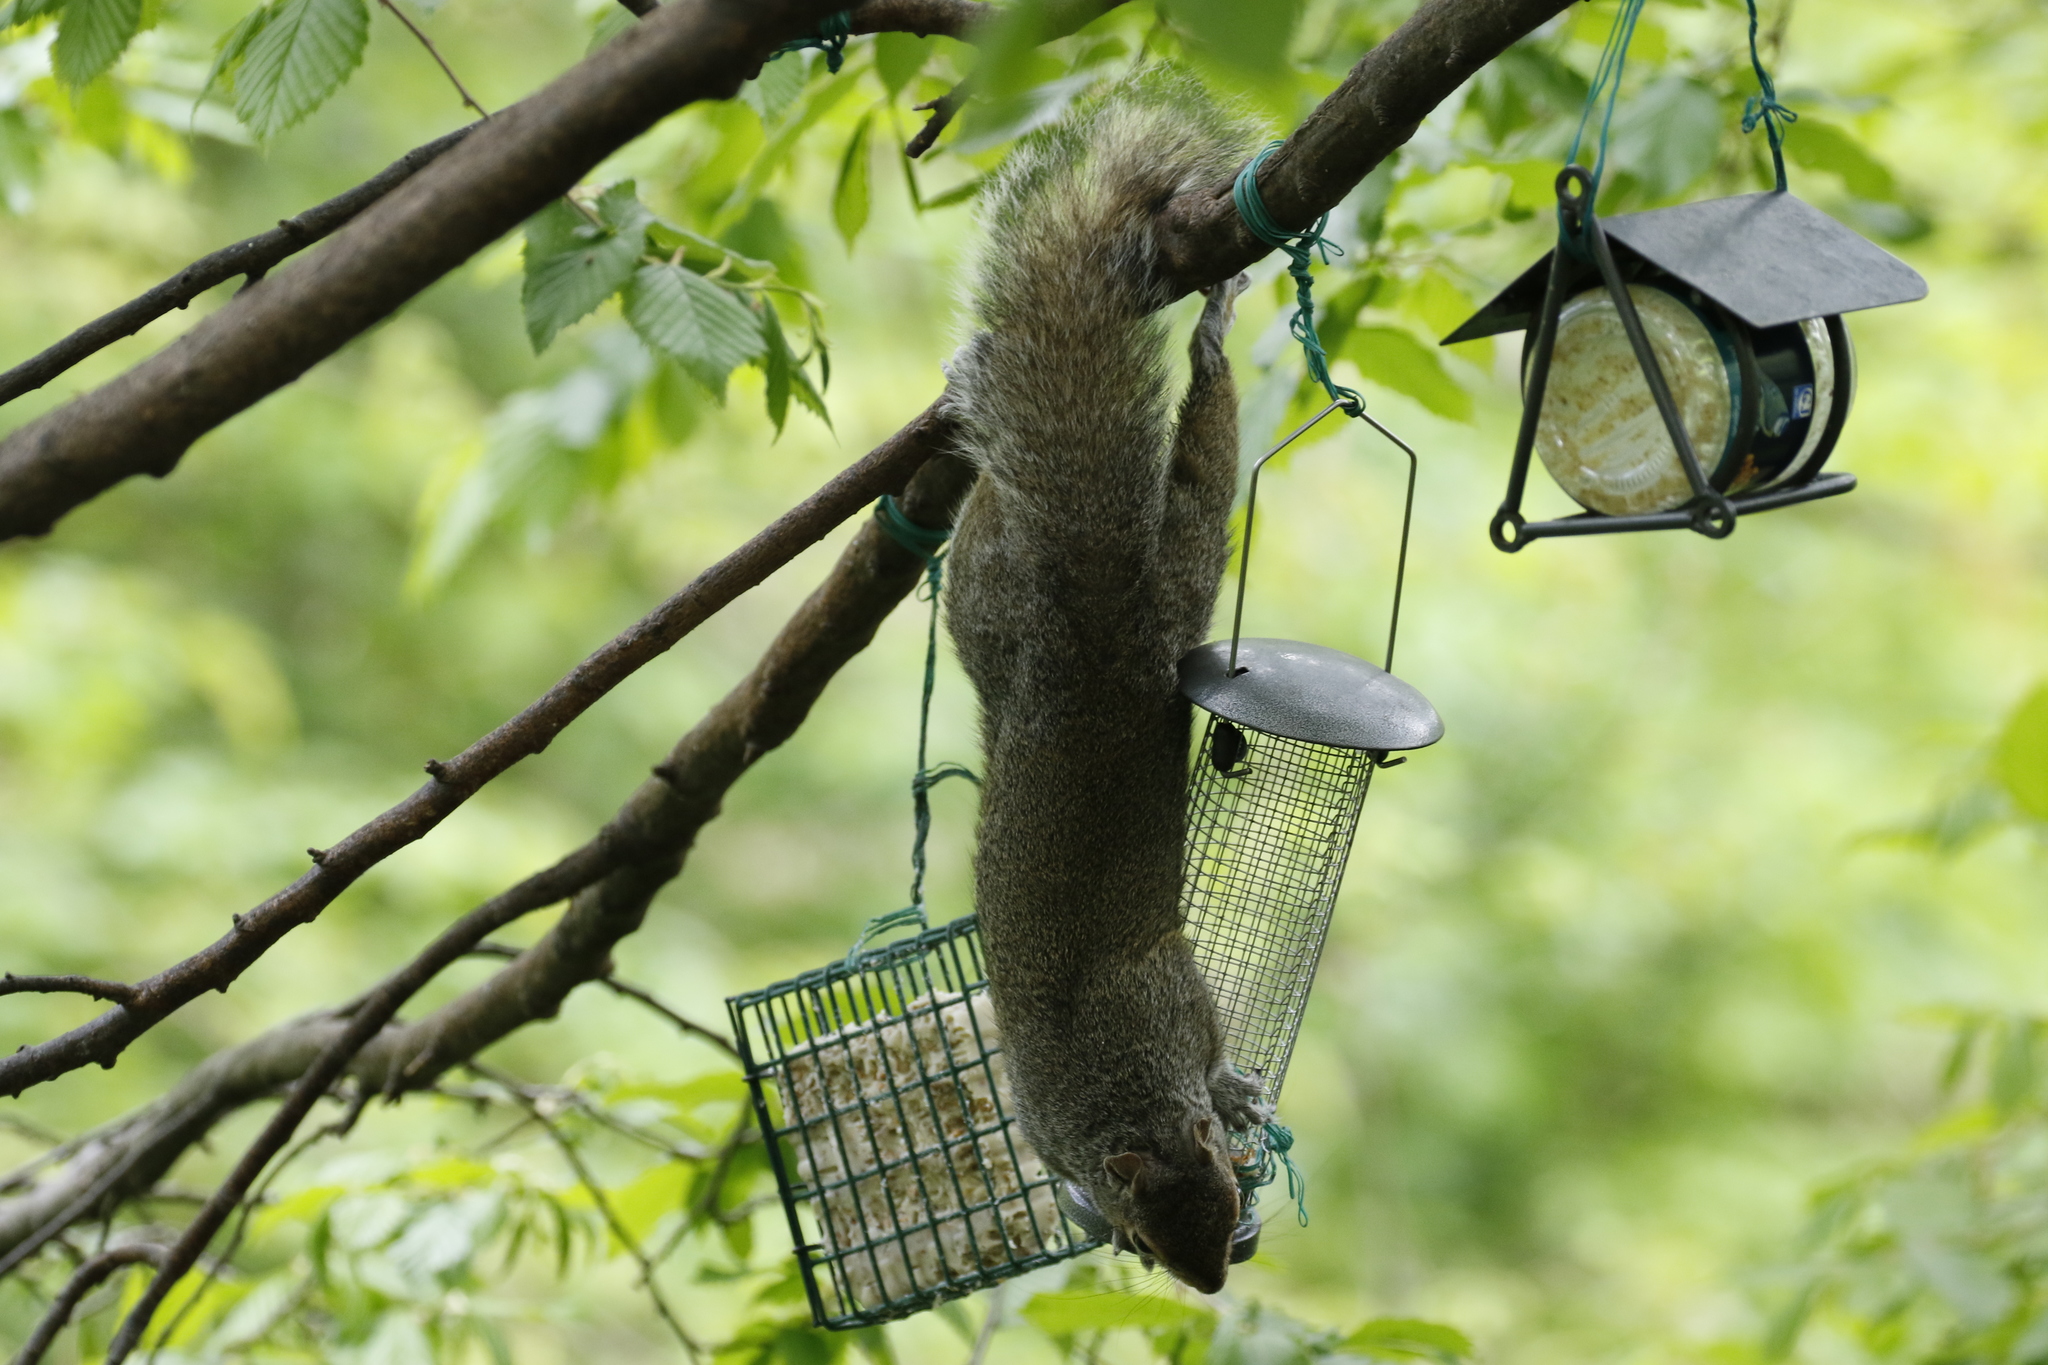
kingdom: Animalia
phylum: Chordata
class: Mammalia
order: Rodentia
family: Sciuridae
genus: Sciurus
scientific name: Sciurus carolinensis
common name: Eastern gray squirrel
